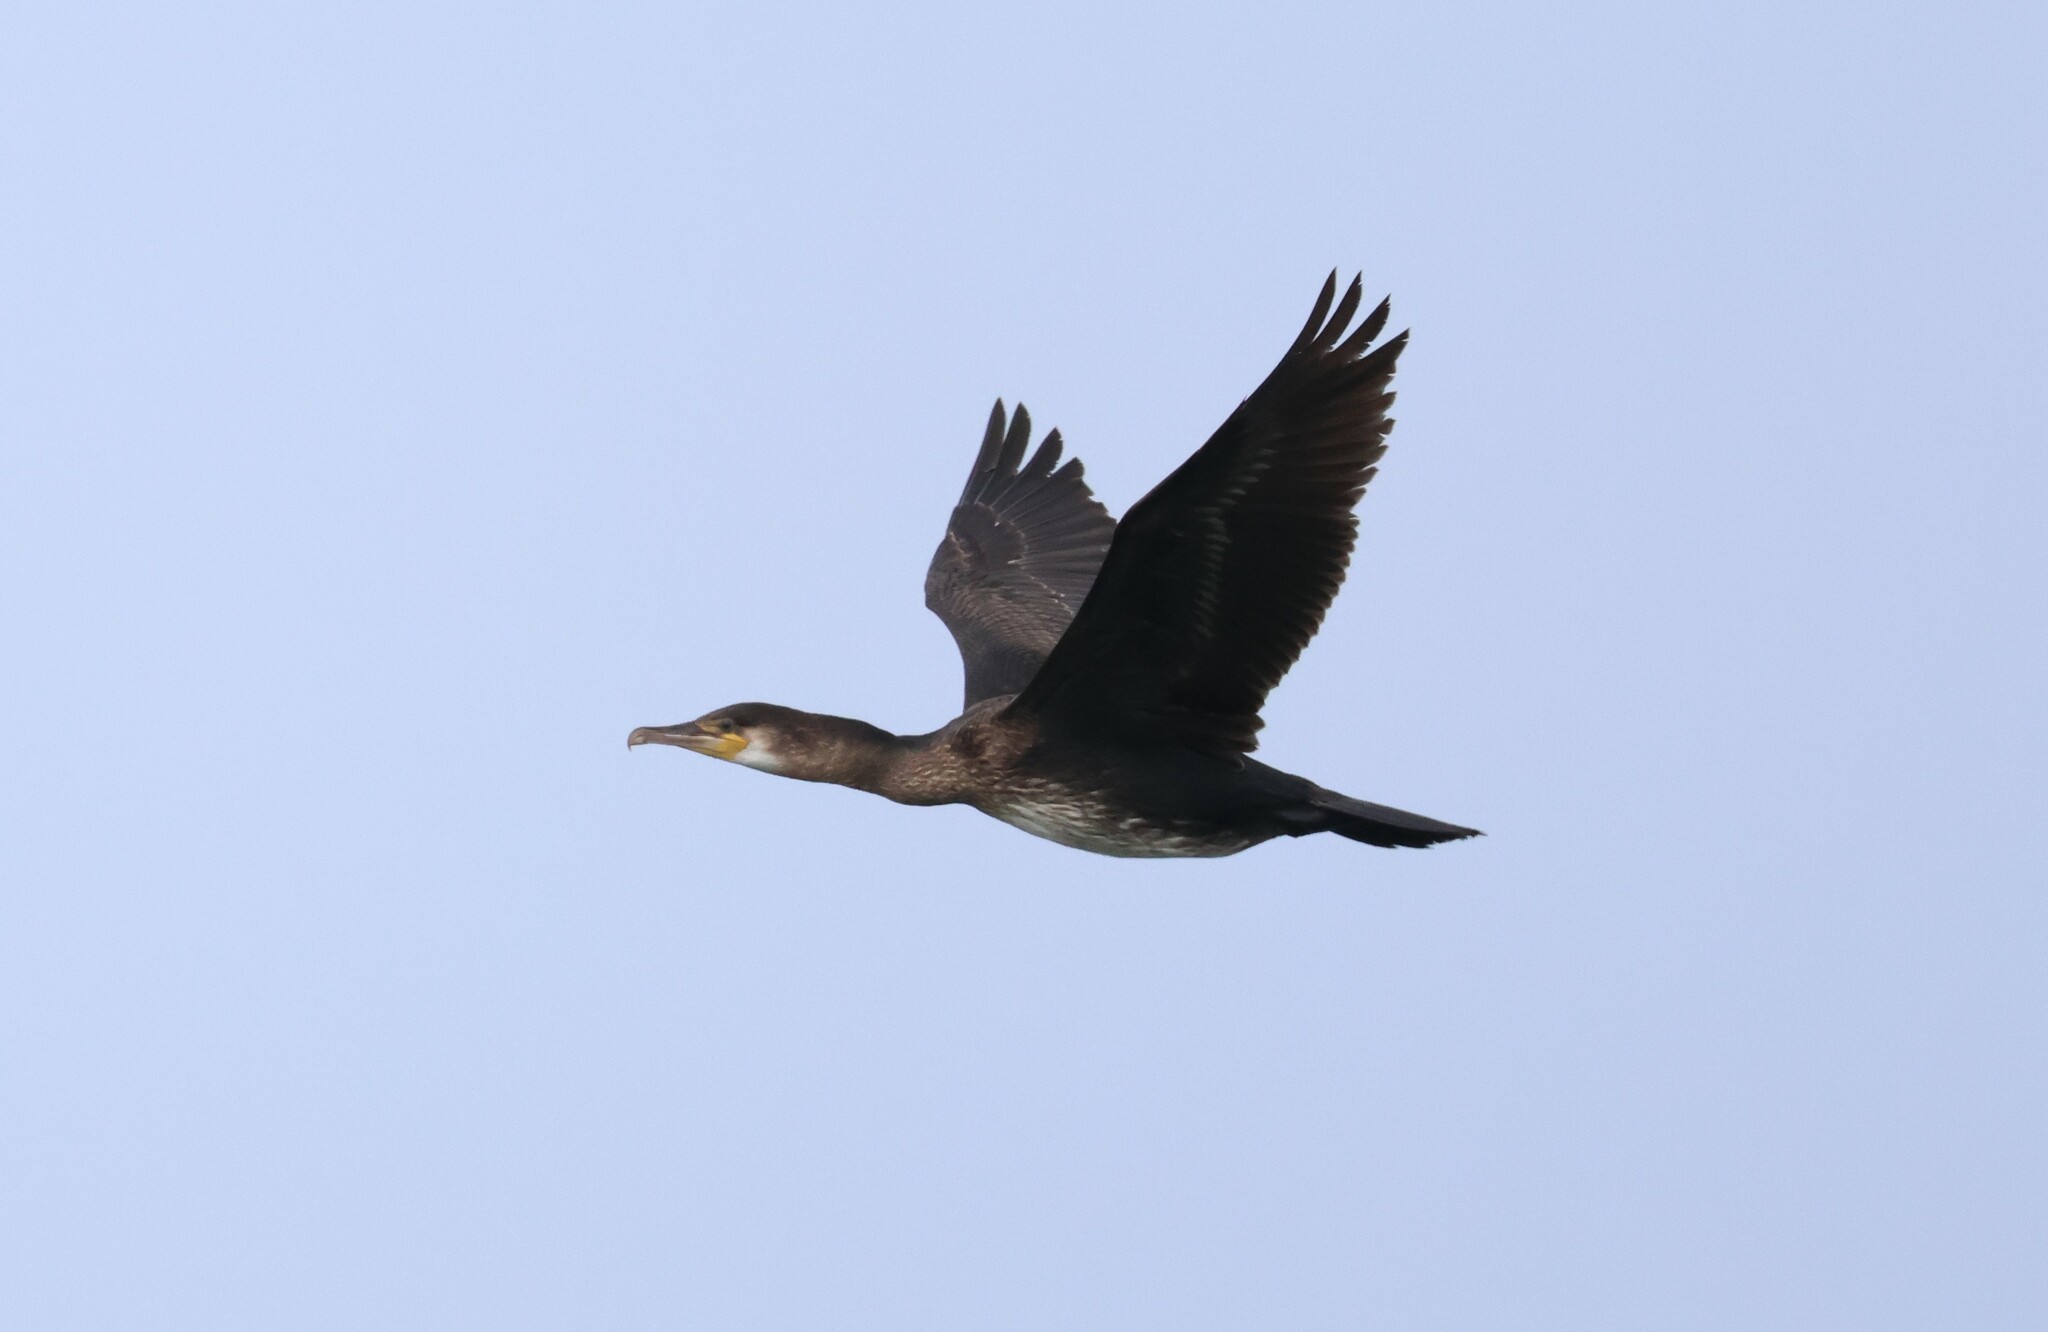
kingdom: Animalia
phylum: Chordata
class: Aves
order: Suliformes
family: Phalacrocoracidae
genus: Phalacrocorax
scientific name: Phalacrocorax carbo
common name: Great cormorant
